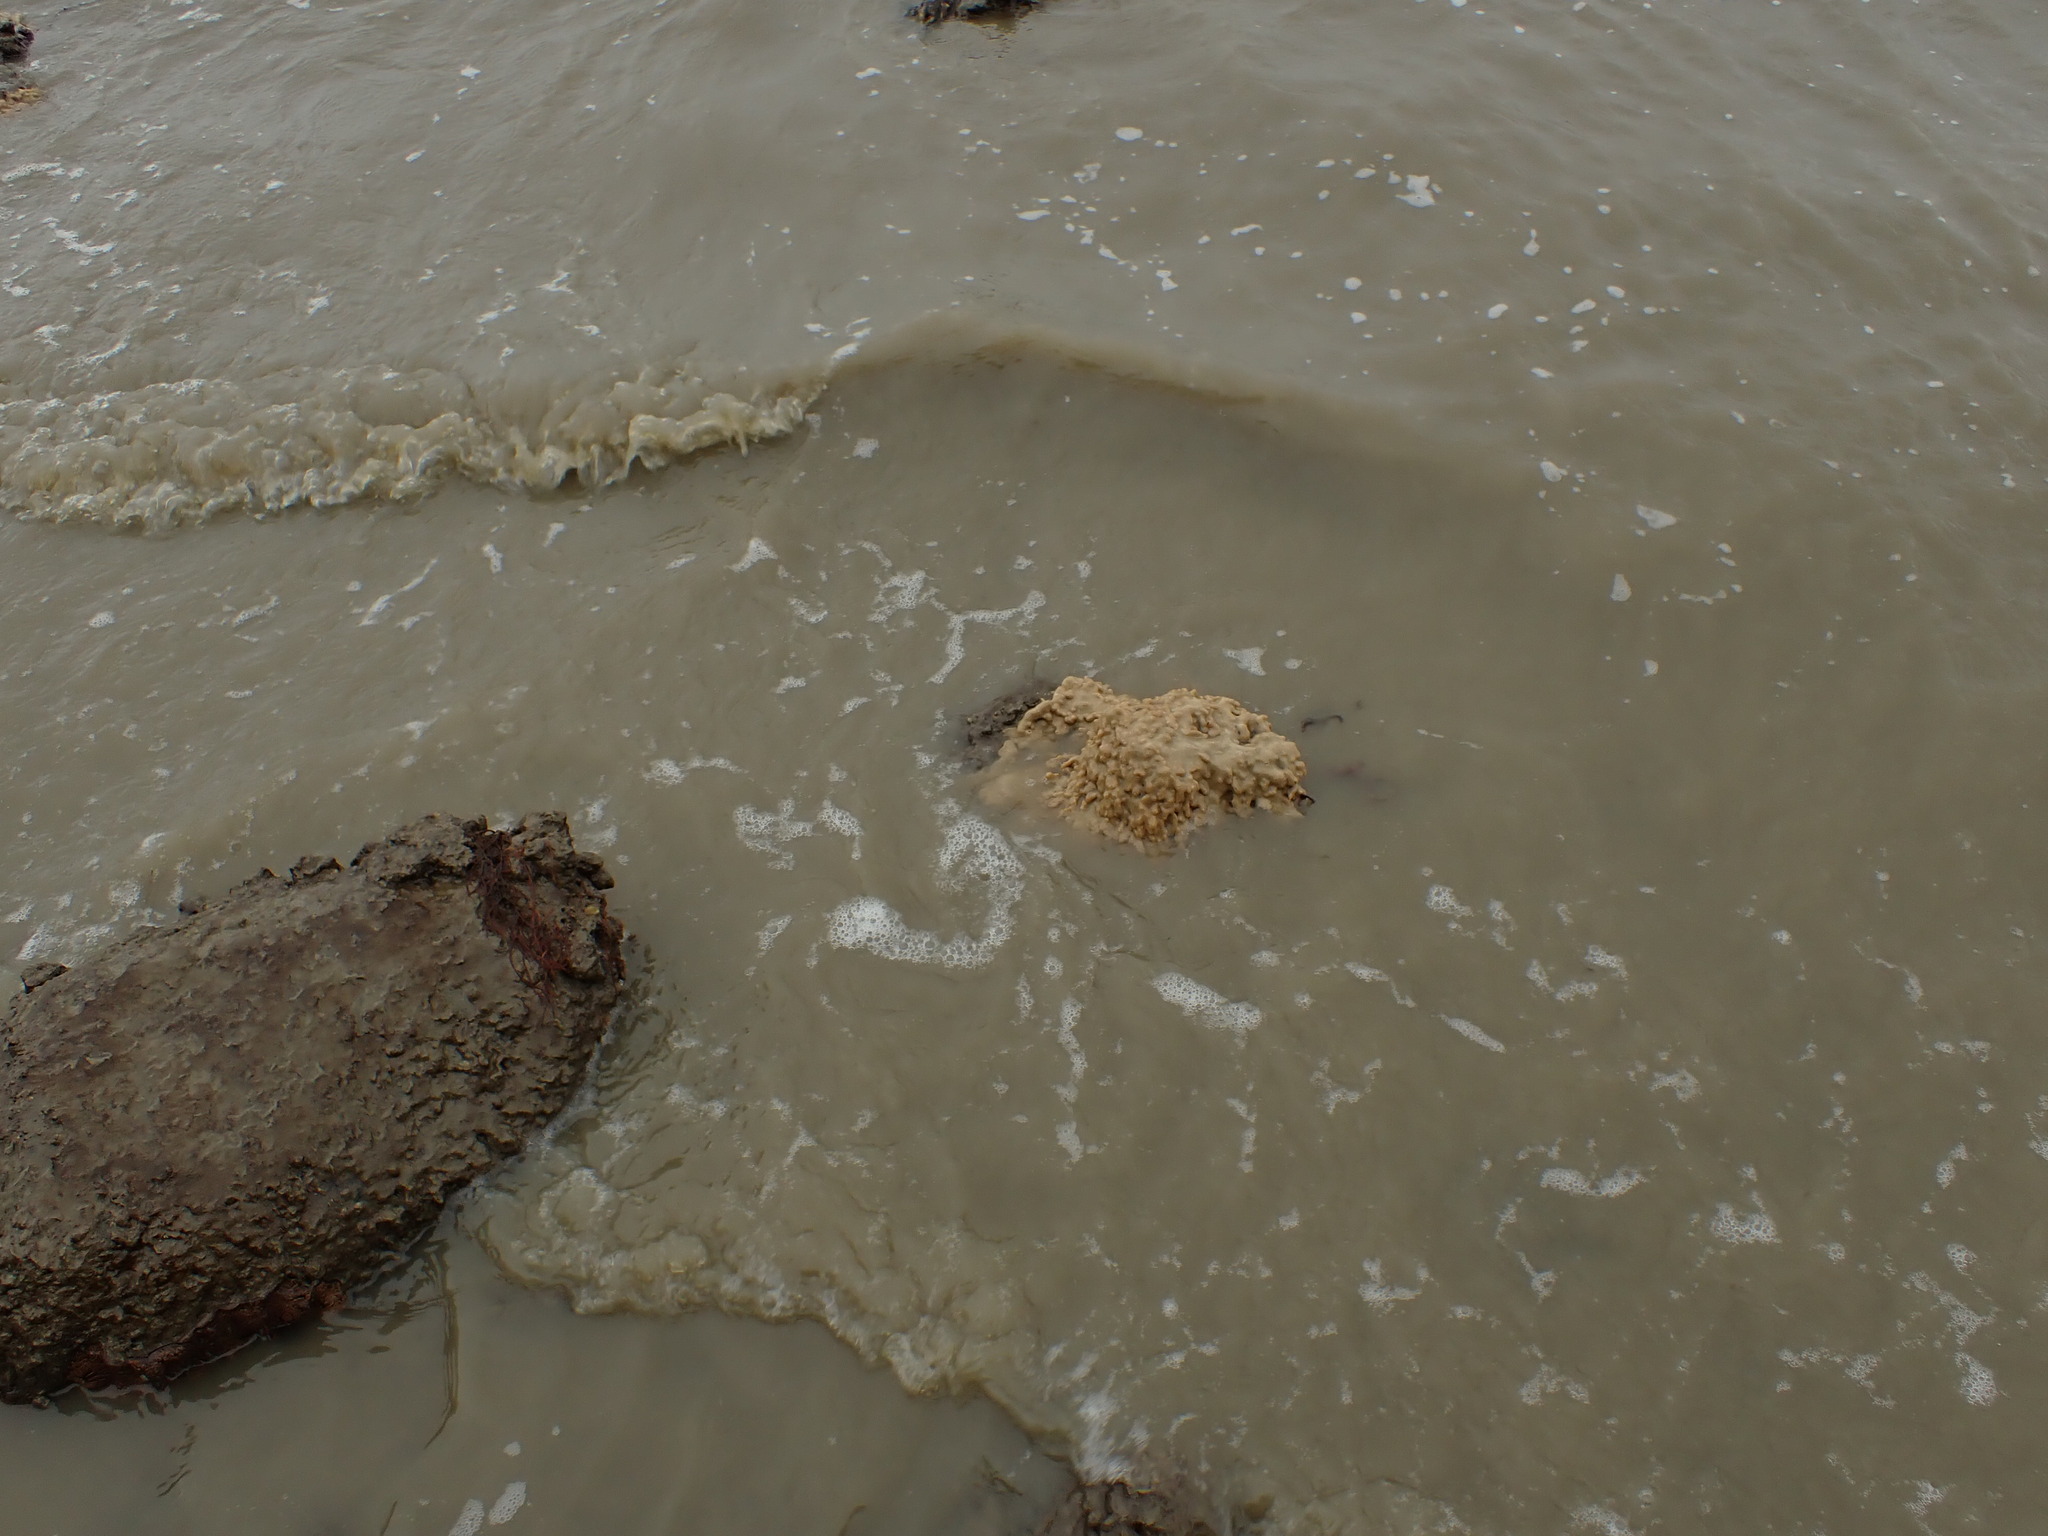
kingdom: Animalia
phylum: Chordata
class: Ascidiacea
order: Aplousobranchia
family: Didemnidae
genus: Didemnum
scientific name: Didemnum vexillum
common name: Compound sea squirt
